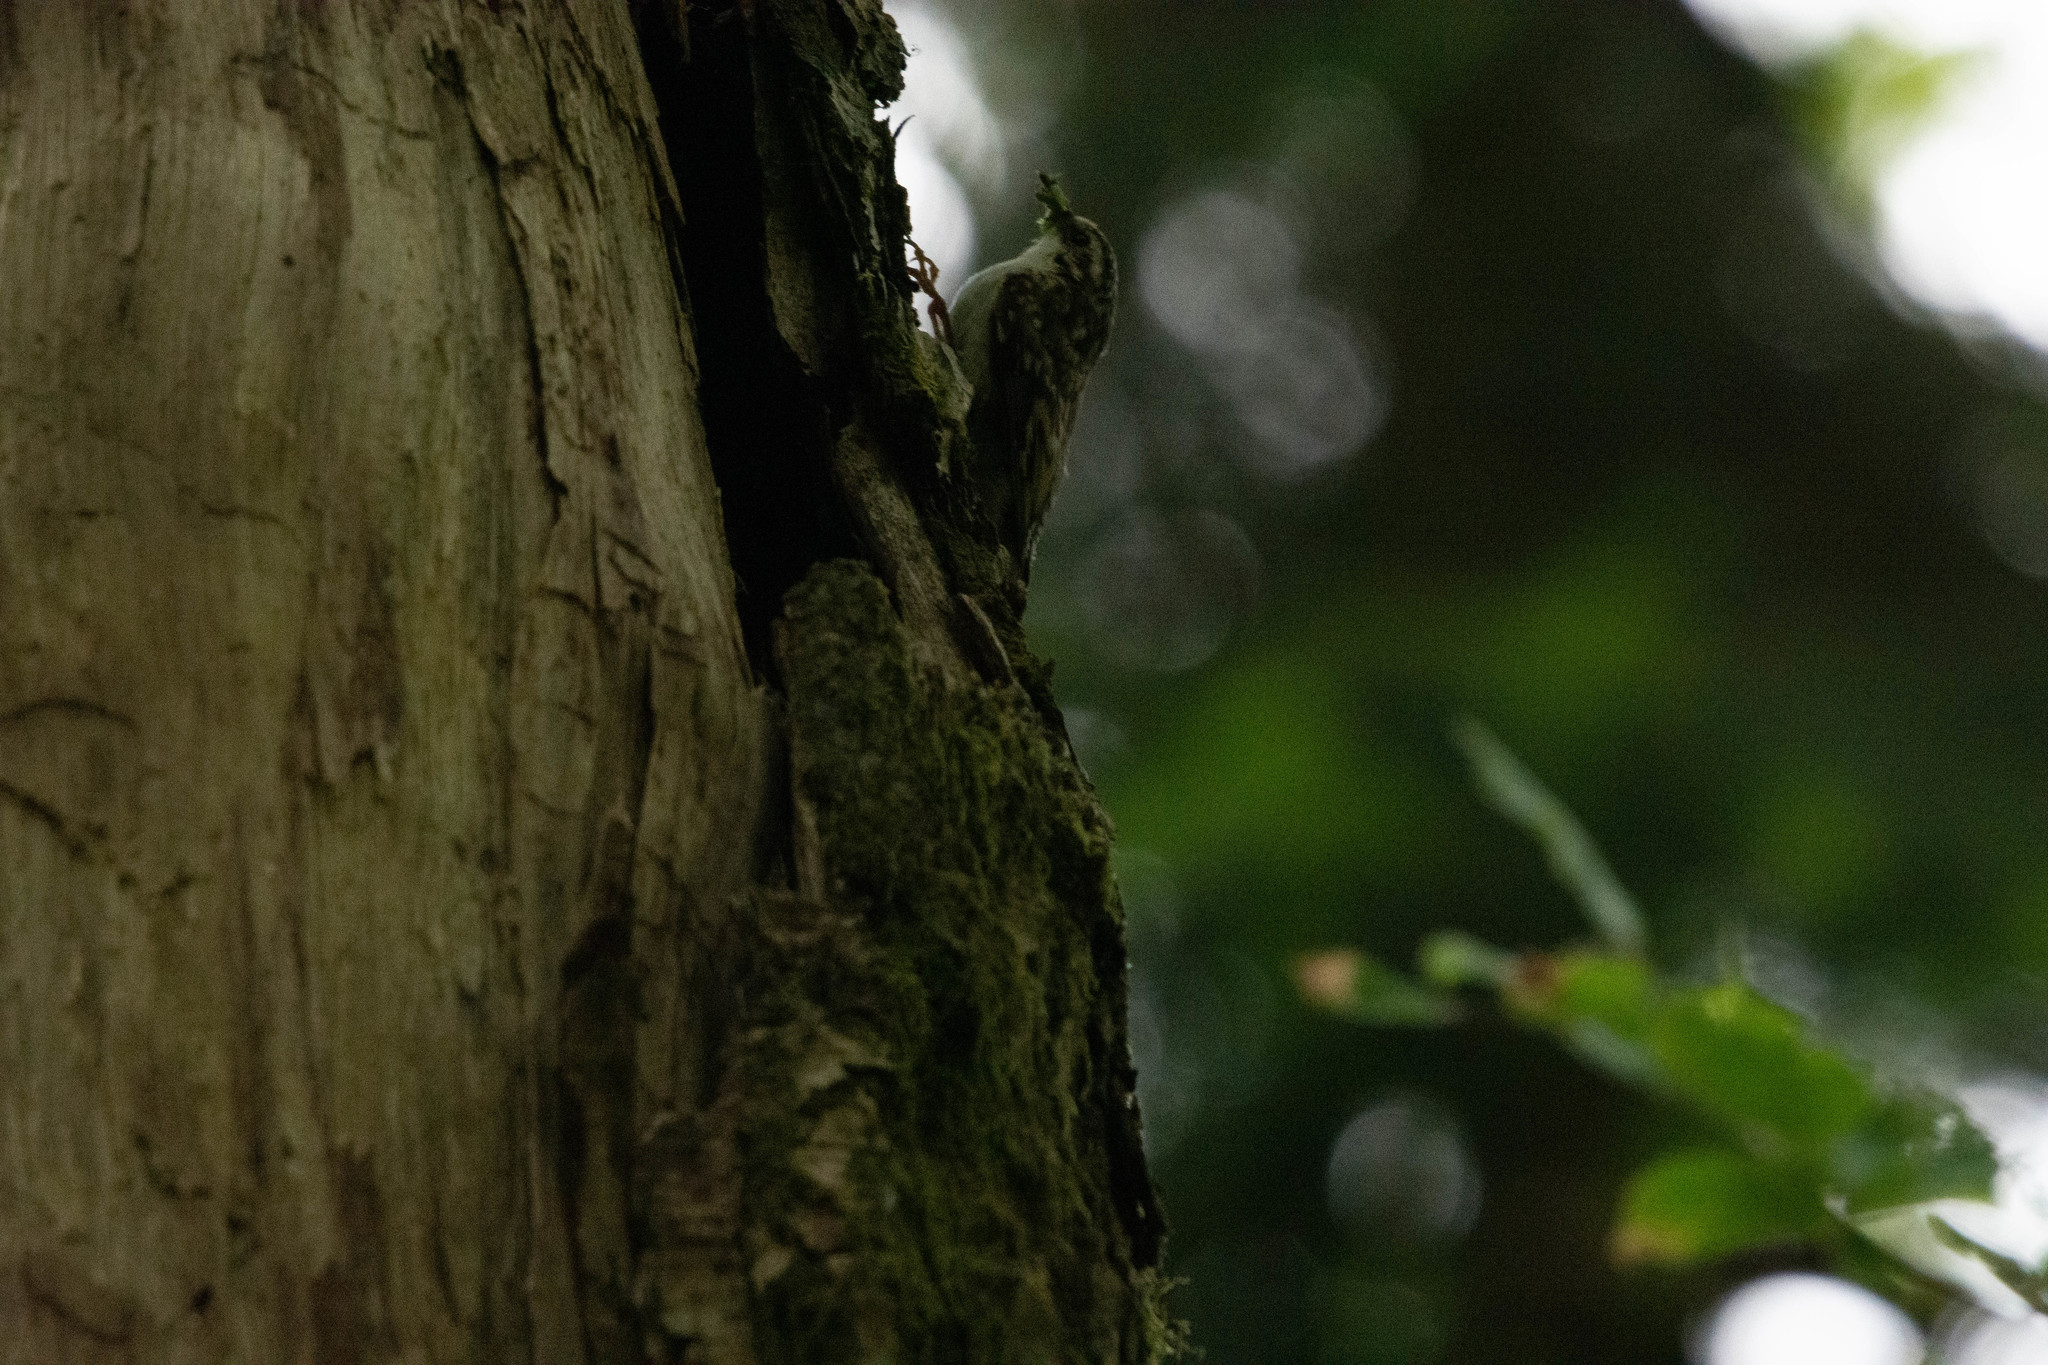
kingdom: Animalia
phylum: Chordata
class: Aves
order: Passeriformes
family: Certhiidae
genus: Certhia
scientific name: Certhia
